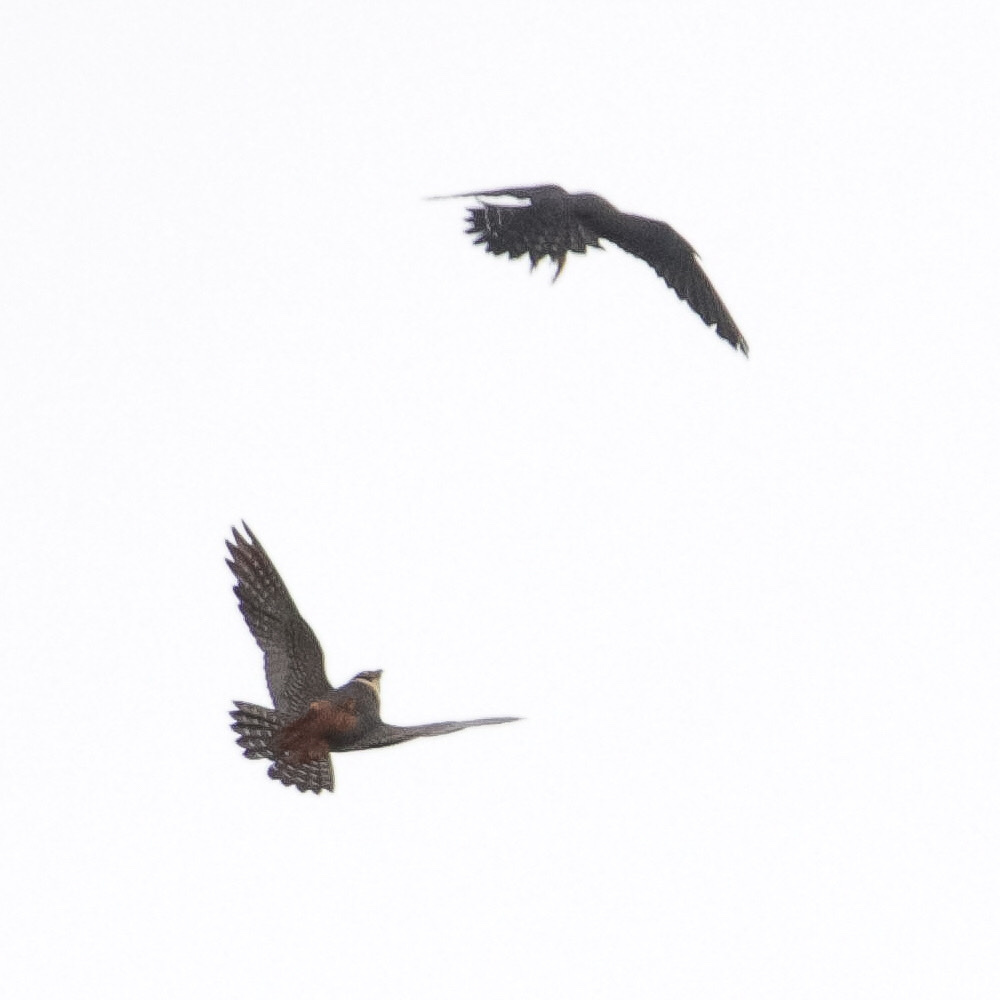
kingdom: Animalia
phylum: Chordata
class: Aves
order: Falconiformes
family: Falconidae
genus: Falco
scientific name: Falco rufigularis
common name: Bat falcon
